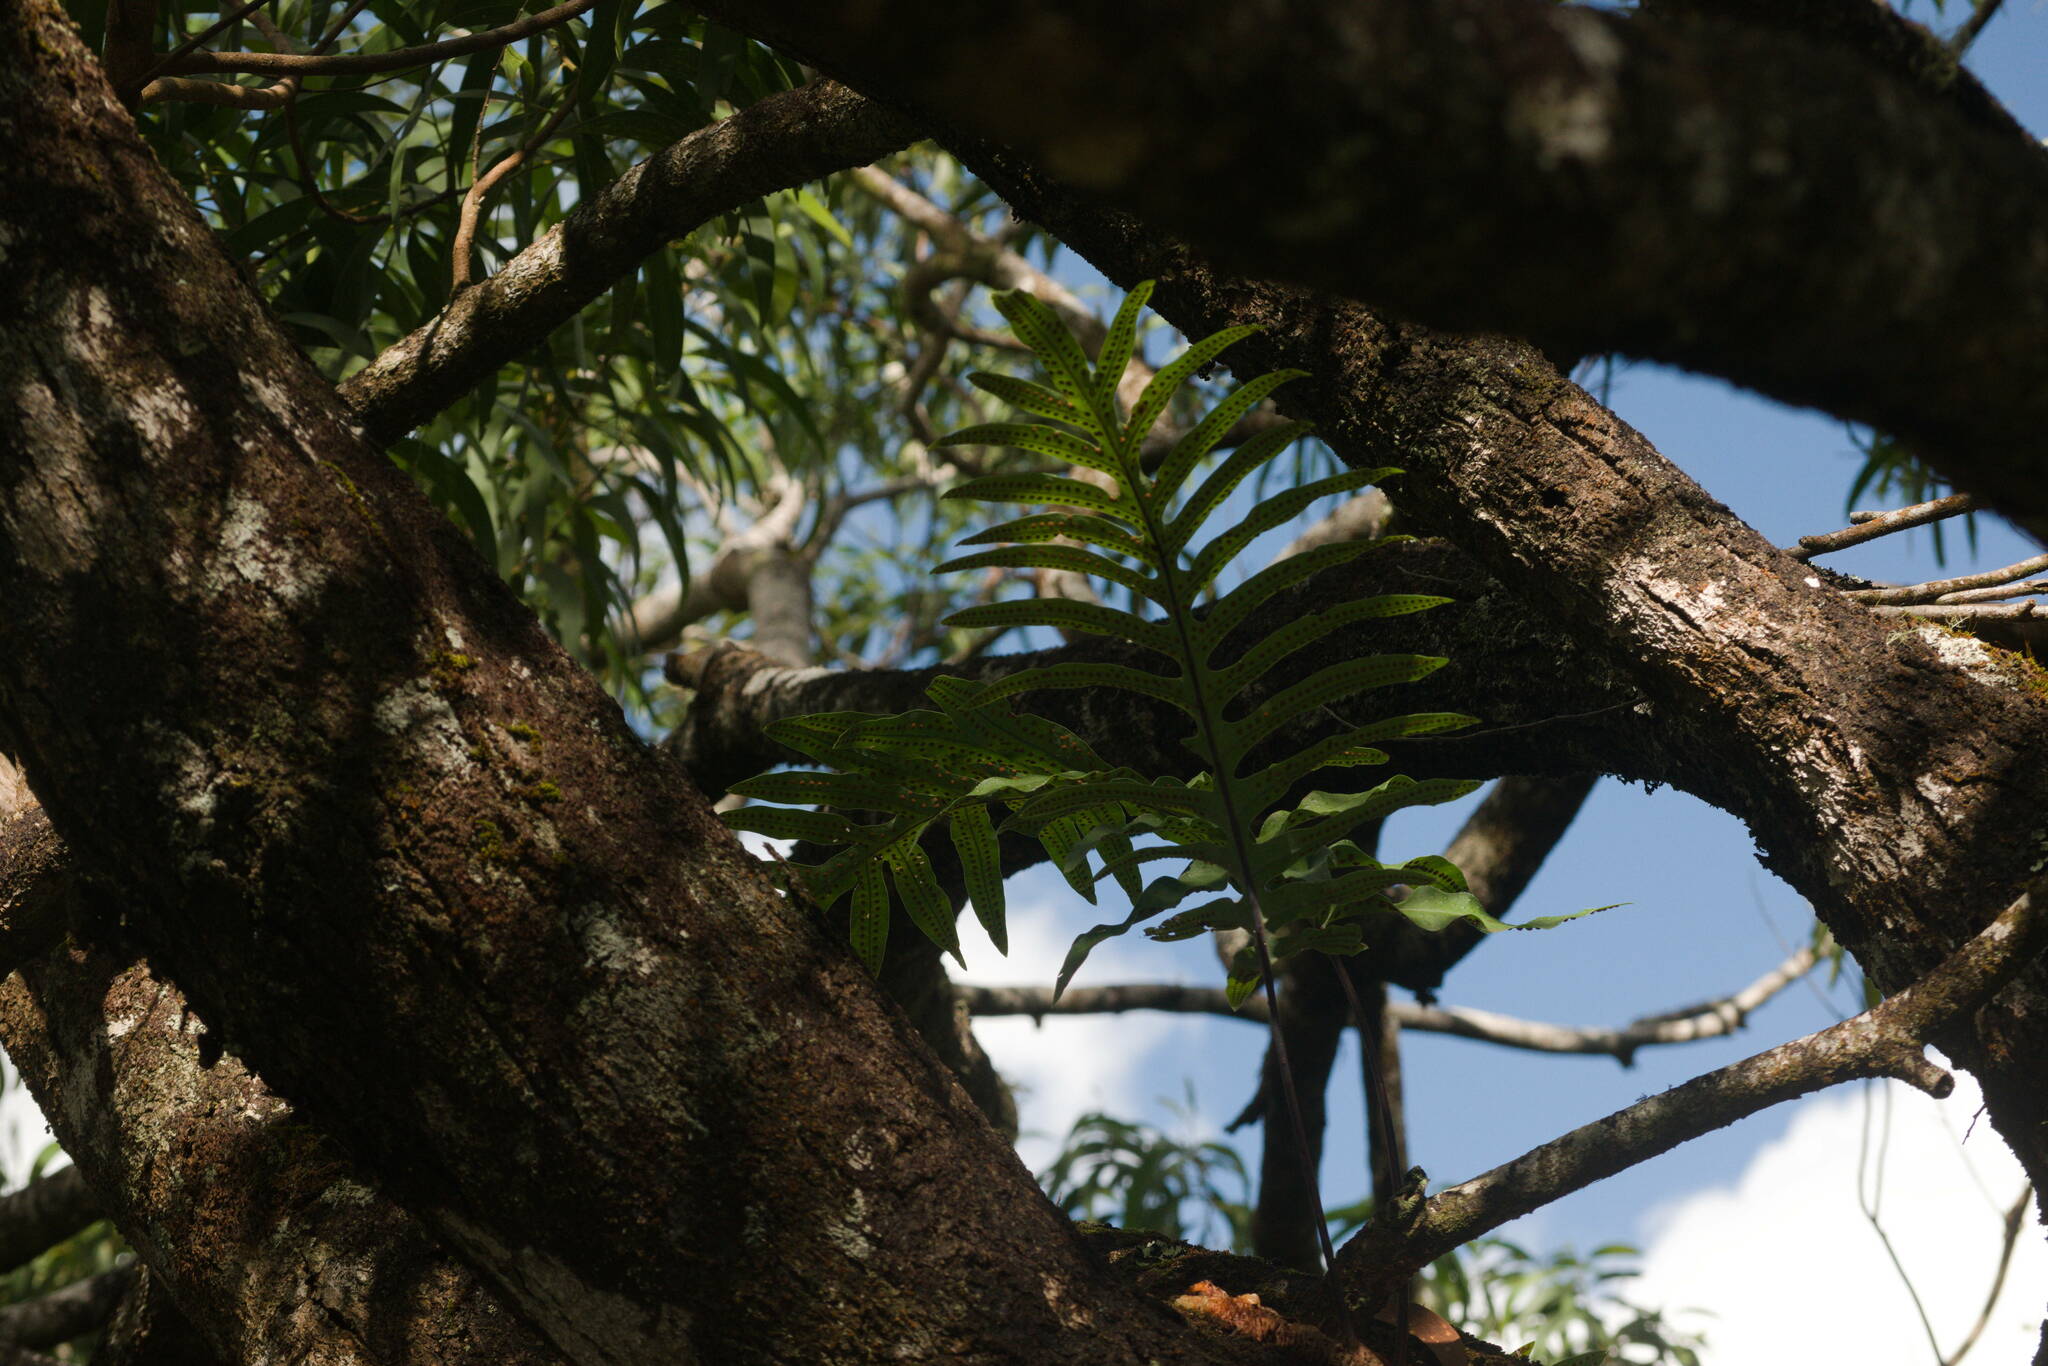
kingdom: Plantae
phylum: Tracheophyta
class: Polypodiopsida
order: Polypodiales
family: Polypodiaceae
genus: Phlebodium
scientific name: Phlebodium aureum
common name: Gold-foot fern
